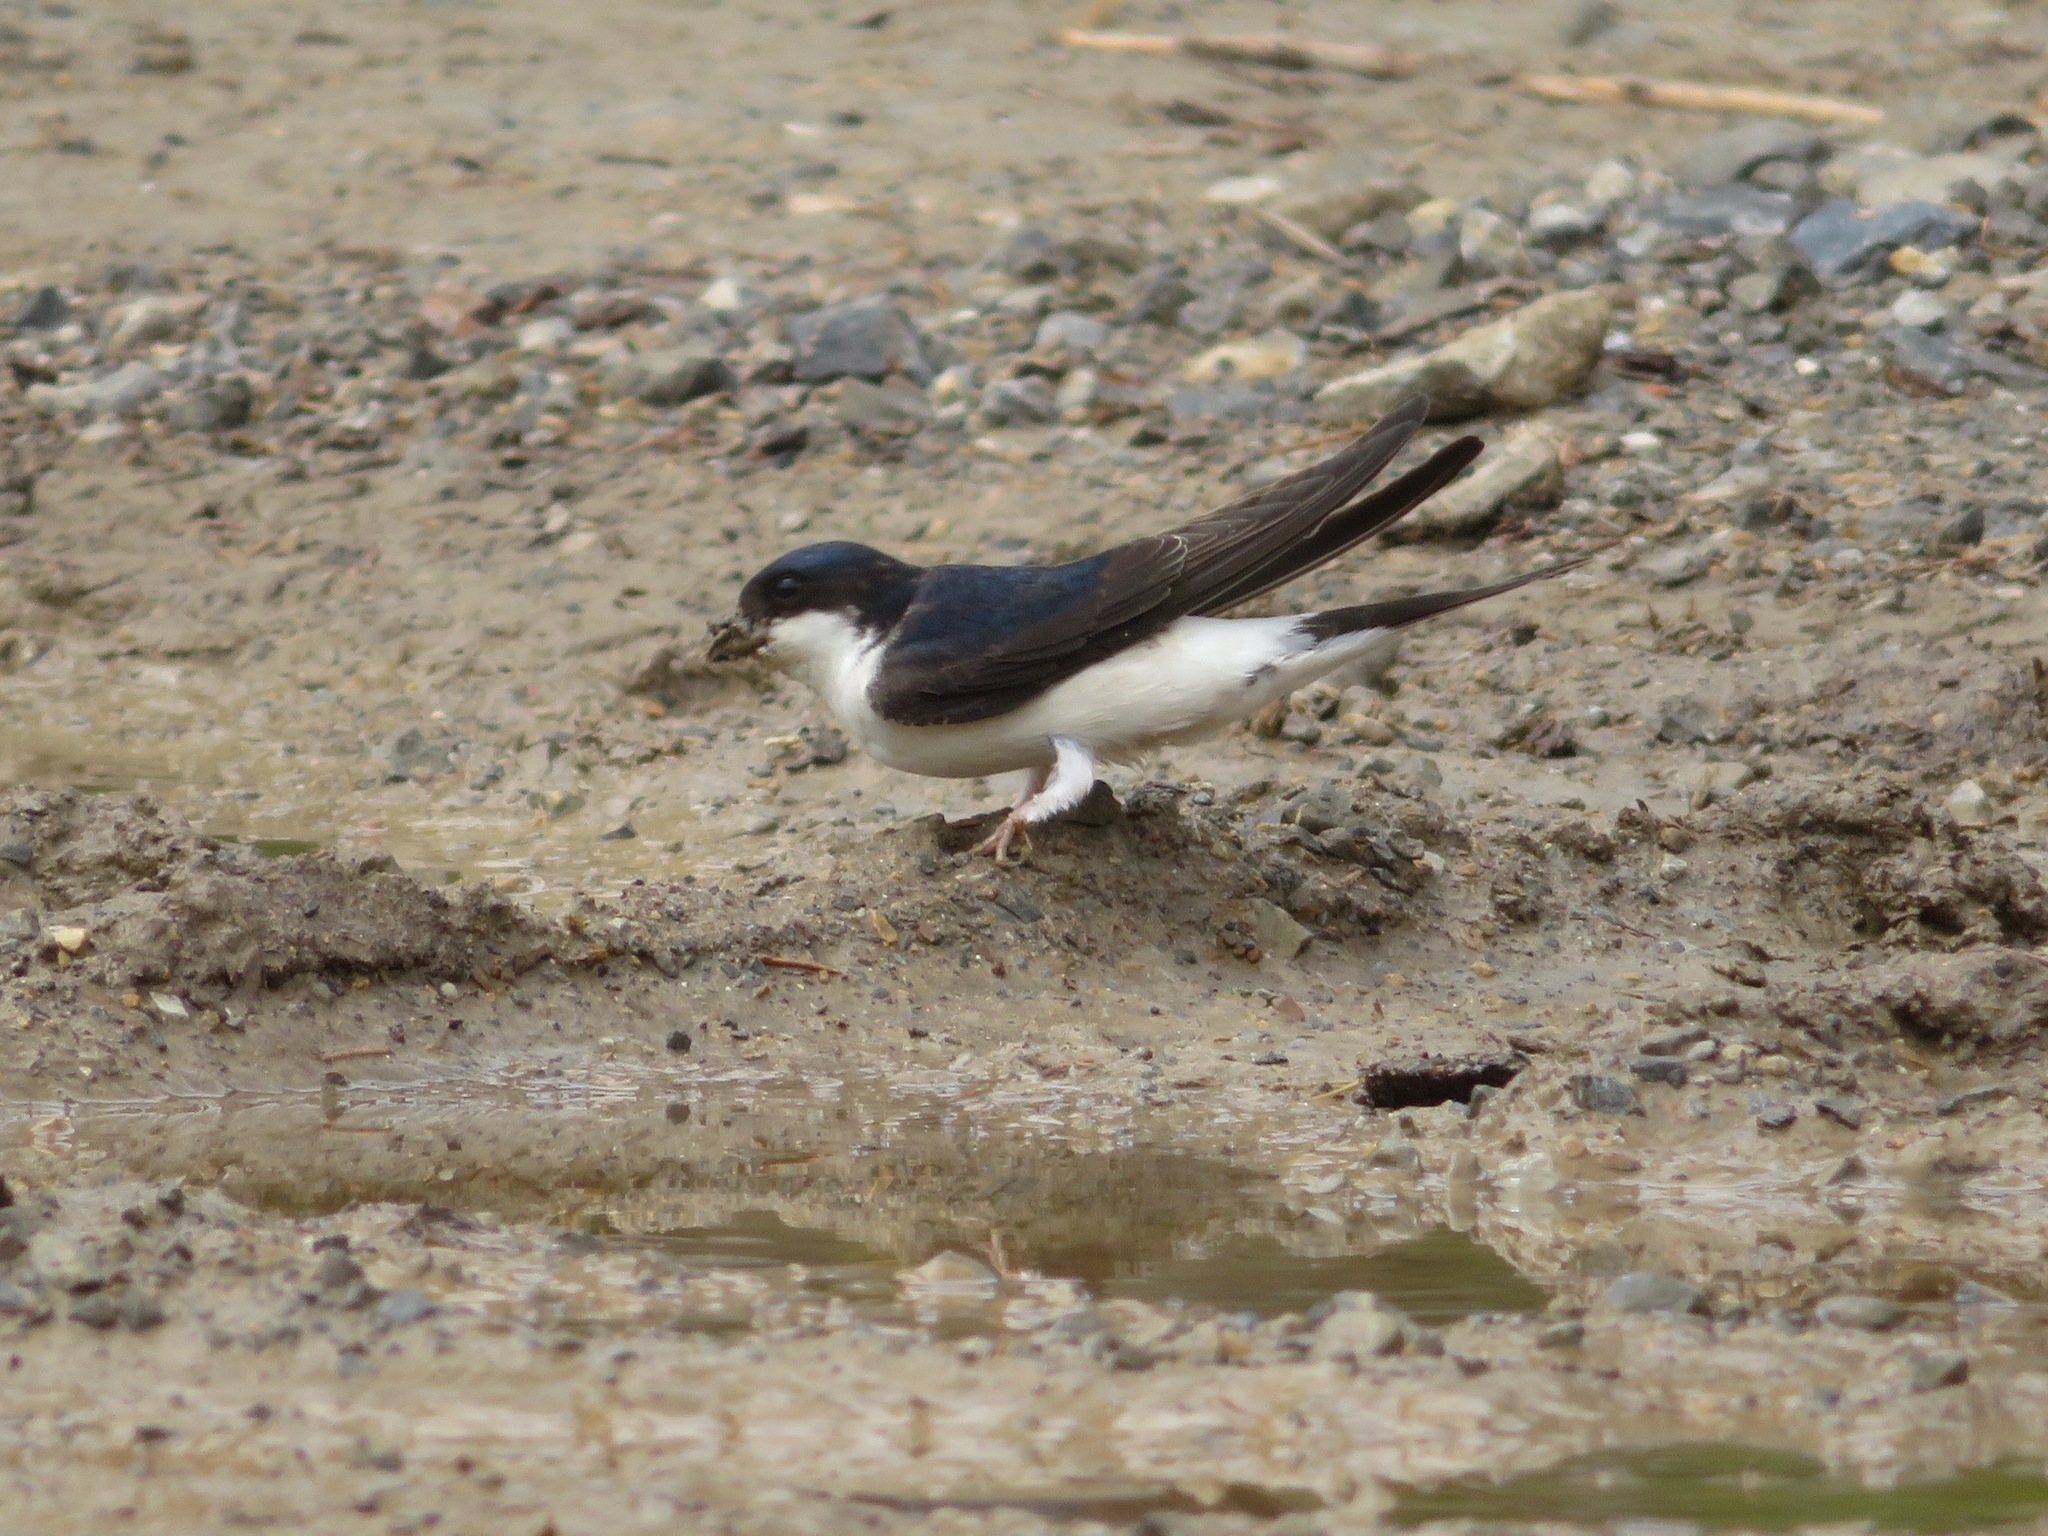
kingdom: Animalia
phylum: Chordata
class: Aves
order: Passeriformes
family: Hirundinidae
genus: Delichon
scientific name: Delichon urbicum
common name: Common house martin
